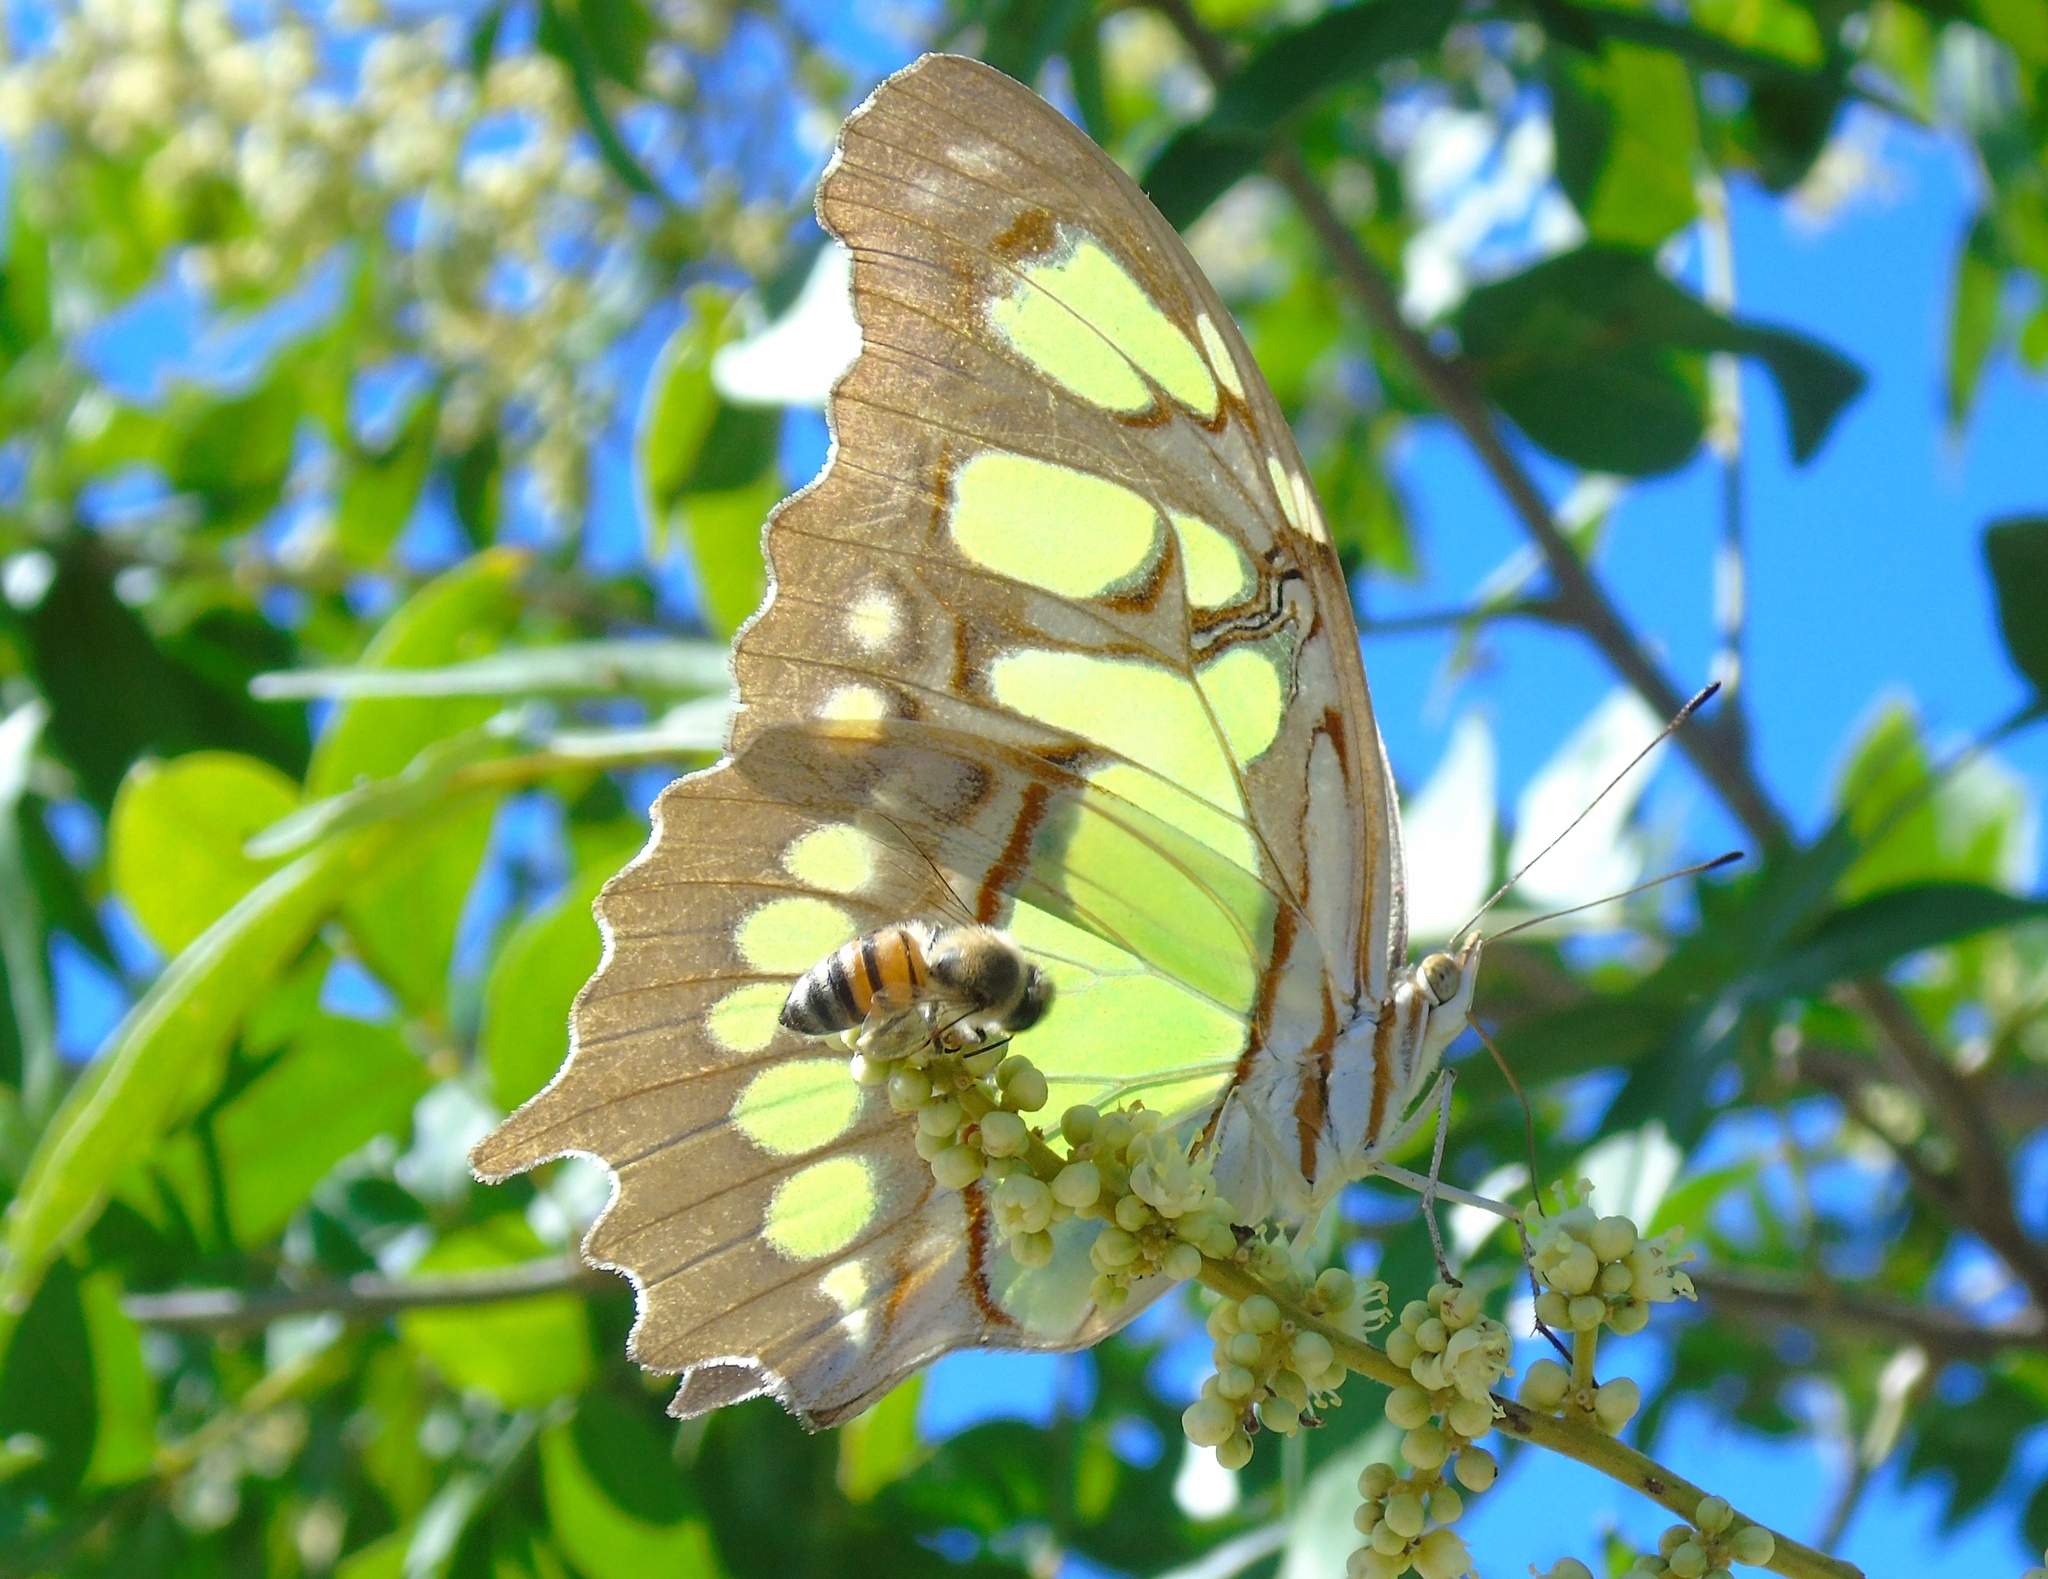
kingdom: Animalia
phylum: Arthropoda
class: Insecta
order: Hymenoptera
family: Apidae
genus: Apis
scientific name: Apis mellifera
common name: Honey bee
